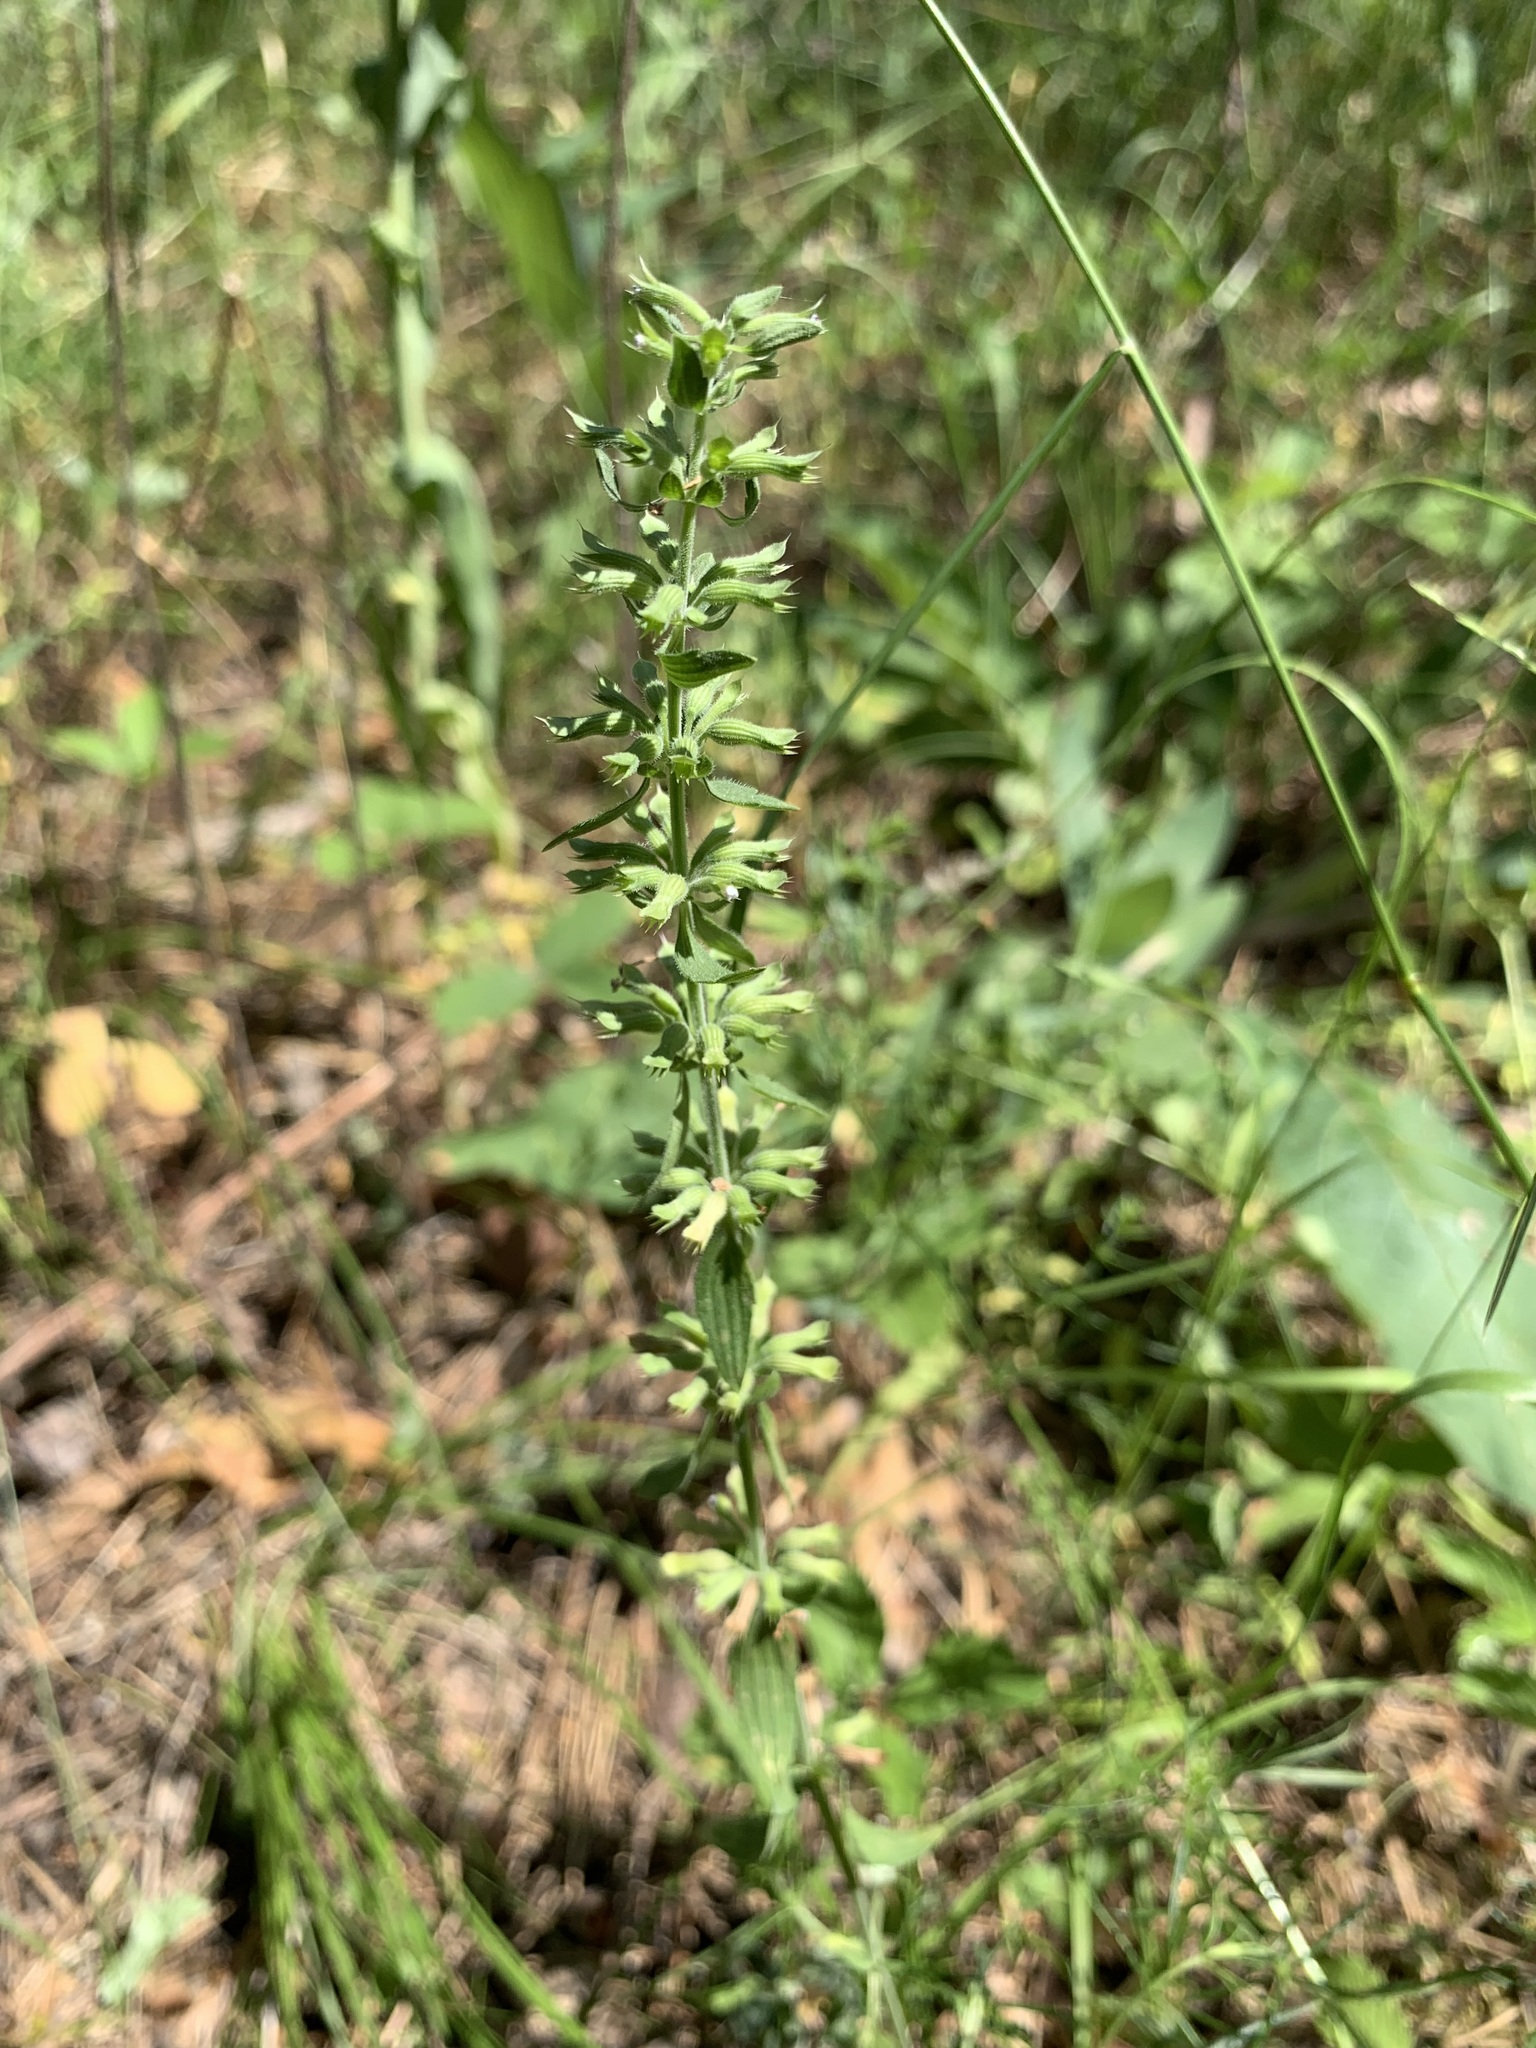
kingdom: Plantae
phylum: Tracheophyta
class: Magnoliopsida
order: Lamiales
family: Lamiaceae
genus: Dracocephalum
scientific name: Dracocephalum thymiflorum
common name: Thymeleaf dragonhead
